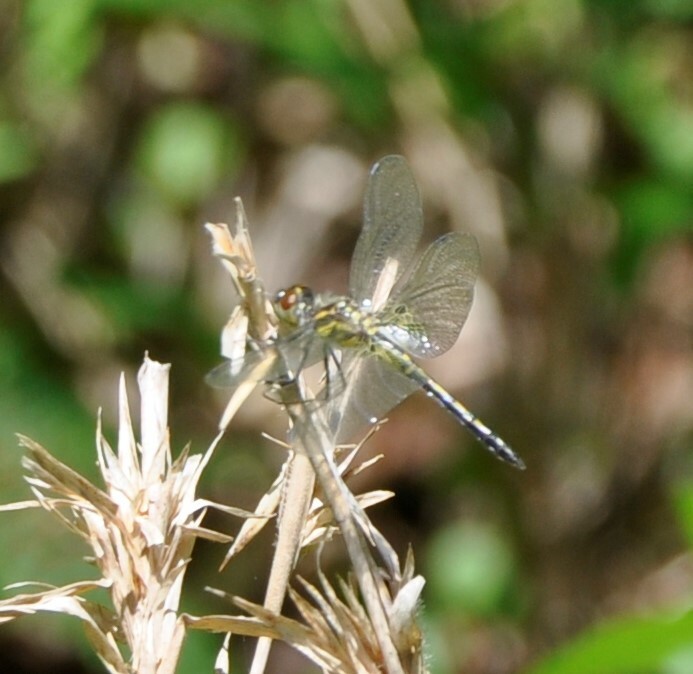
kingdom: Animalia
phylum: Arthropoda
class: Insecta
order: Odonata
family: Libellulidae
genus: Celithemis
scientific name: Celithemis ornata
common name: Ornate pennant
